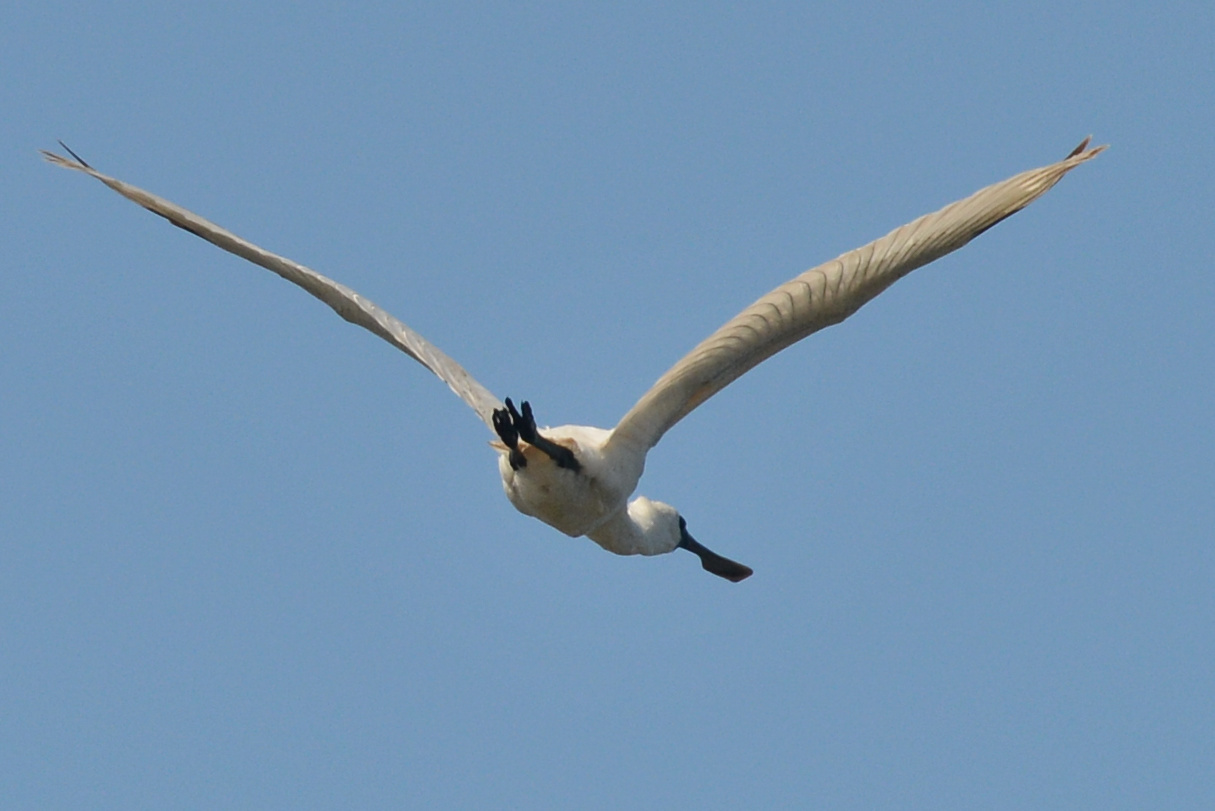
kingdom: Animalia
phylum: Chordata
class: Aves
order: Pelecaniformes
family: Threskiornithidae
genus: Platalea
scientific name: Platalea regia
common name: Royal spoonbill
